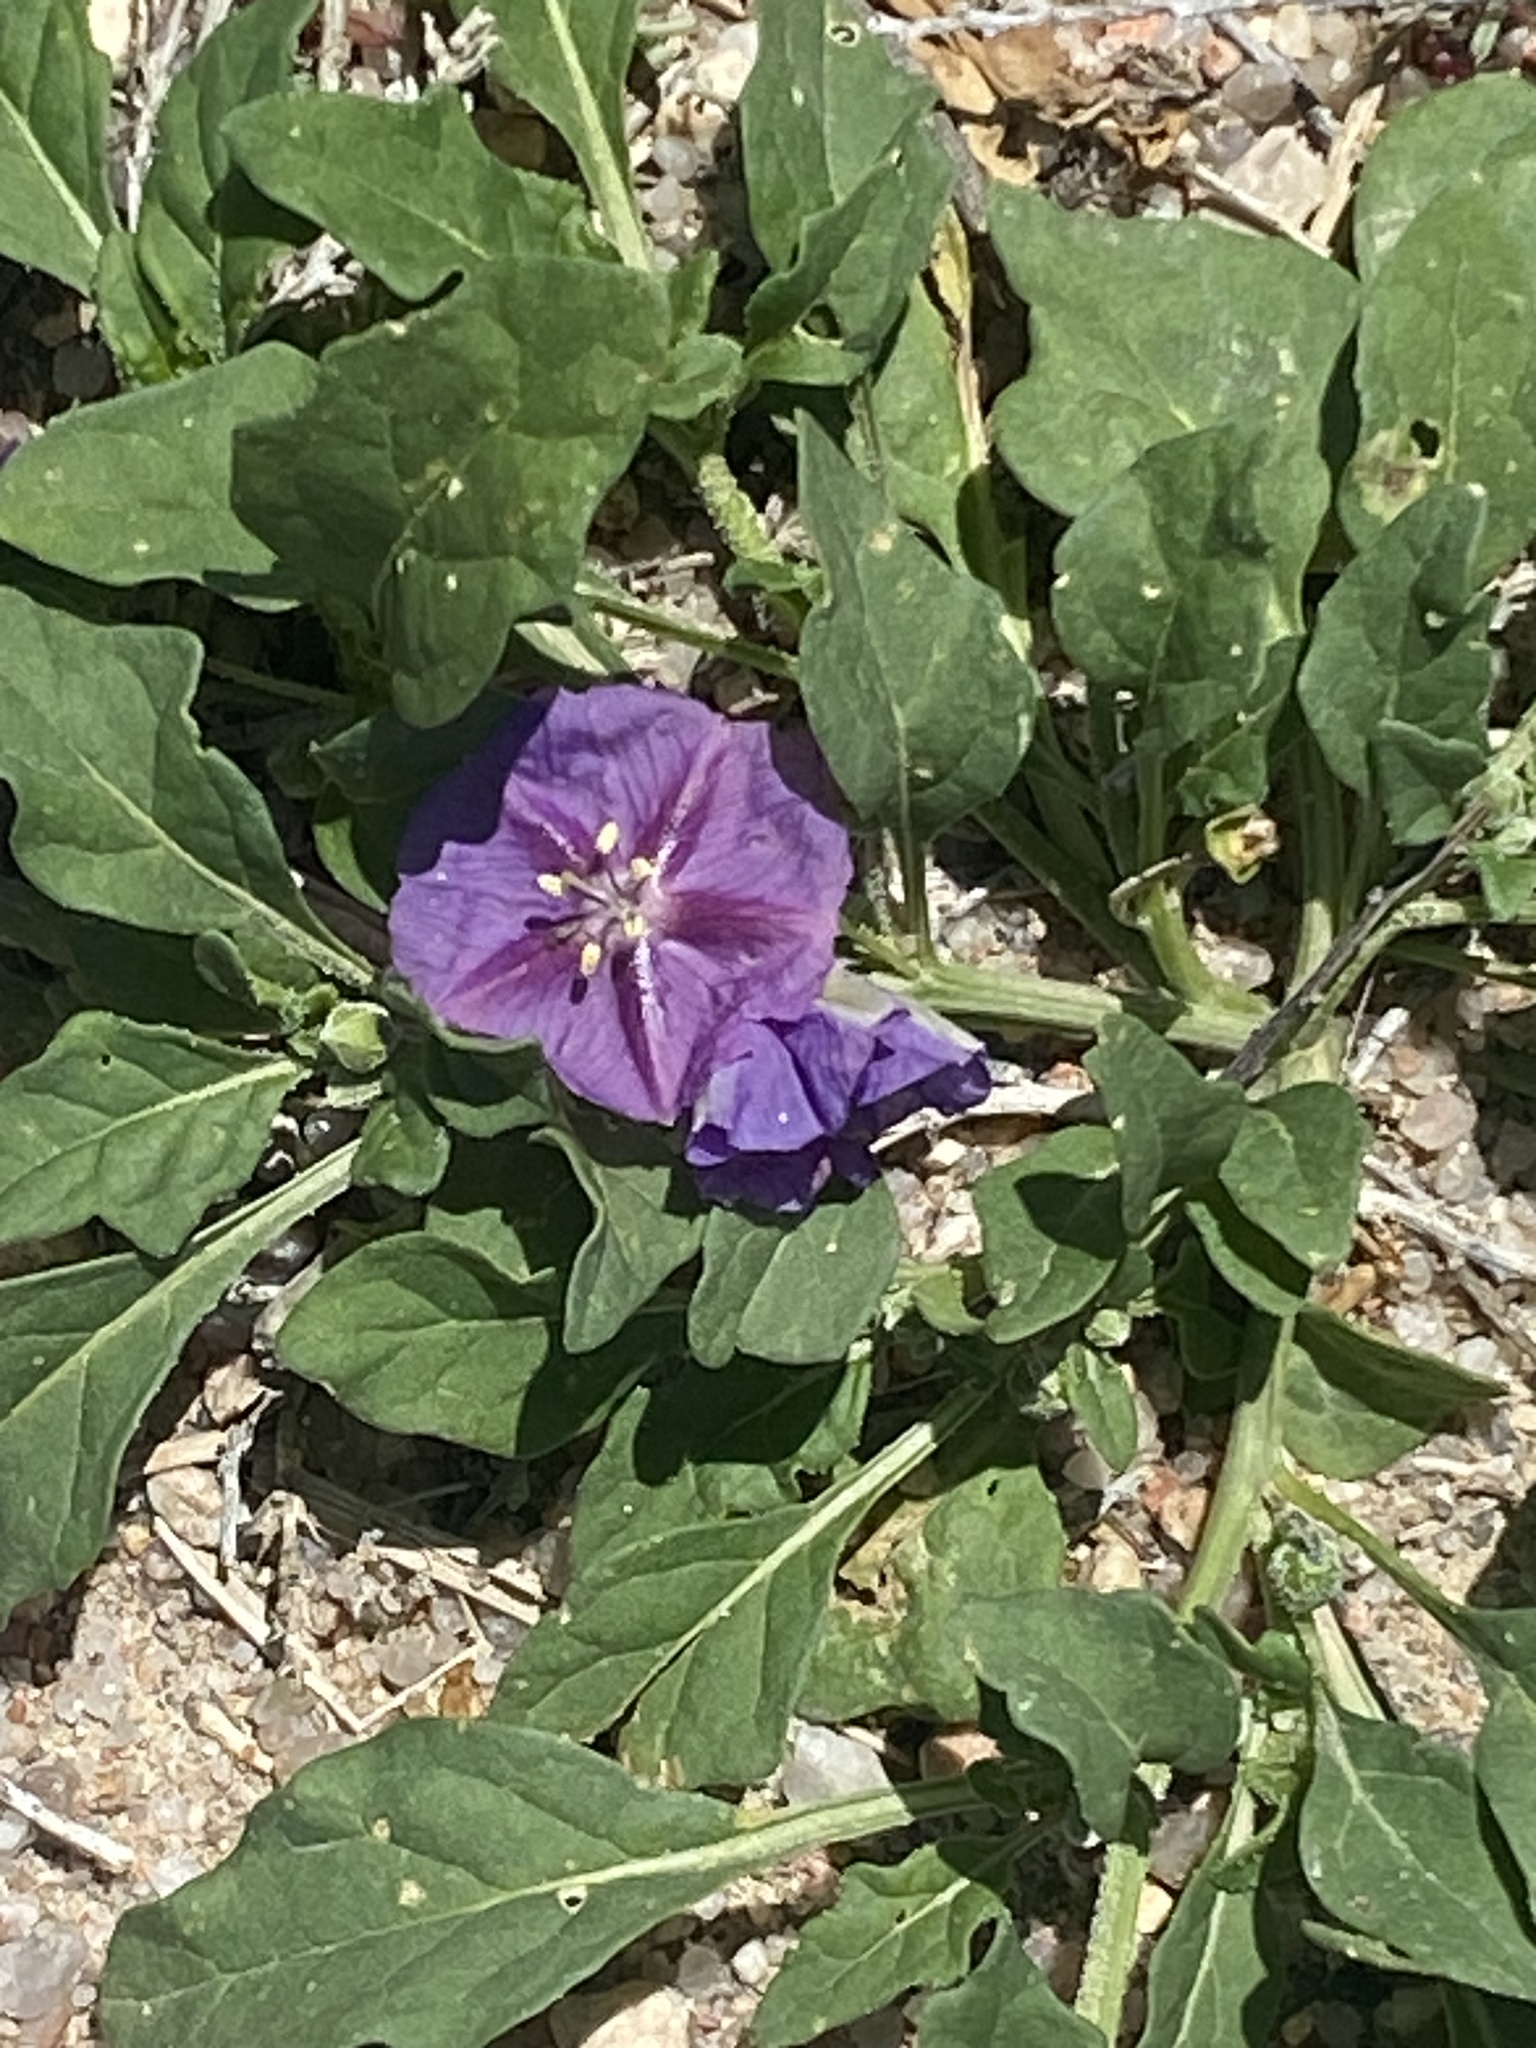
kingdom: Plantae
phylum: Tracheophyta
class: Magnoliopsida
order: Solanales
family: Solanaceae
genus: Quincula
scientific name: Quincula lobata
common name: Purple-ground-cherry
